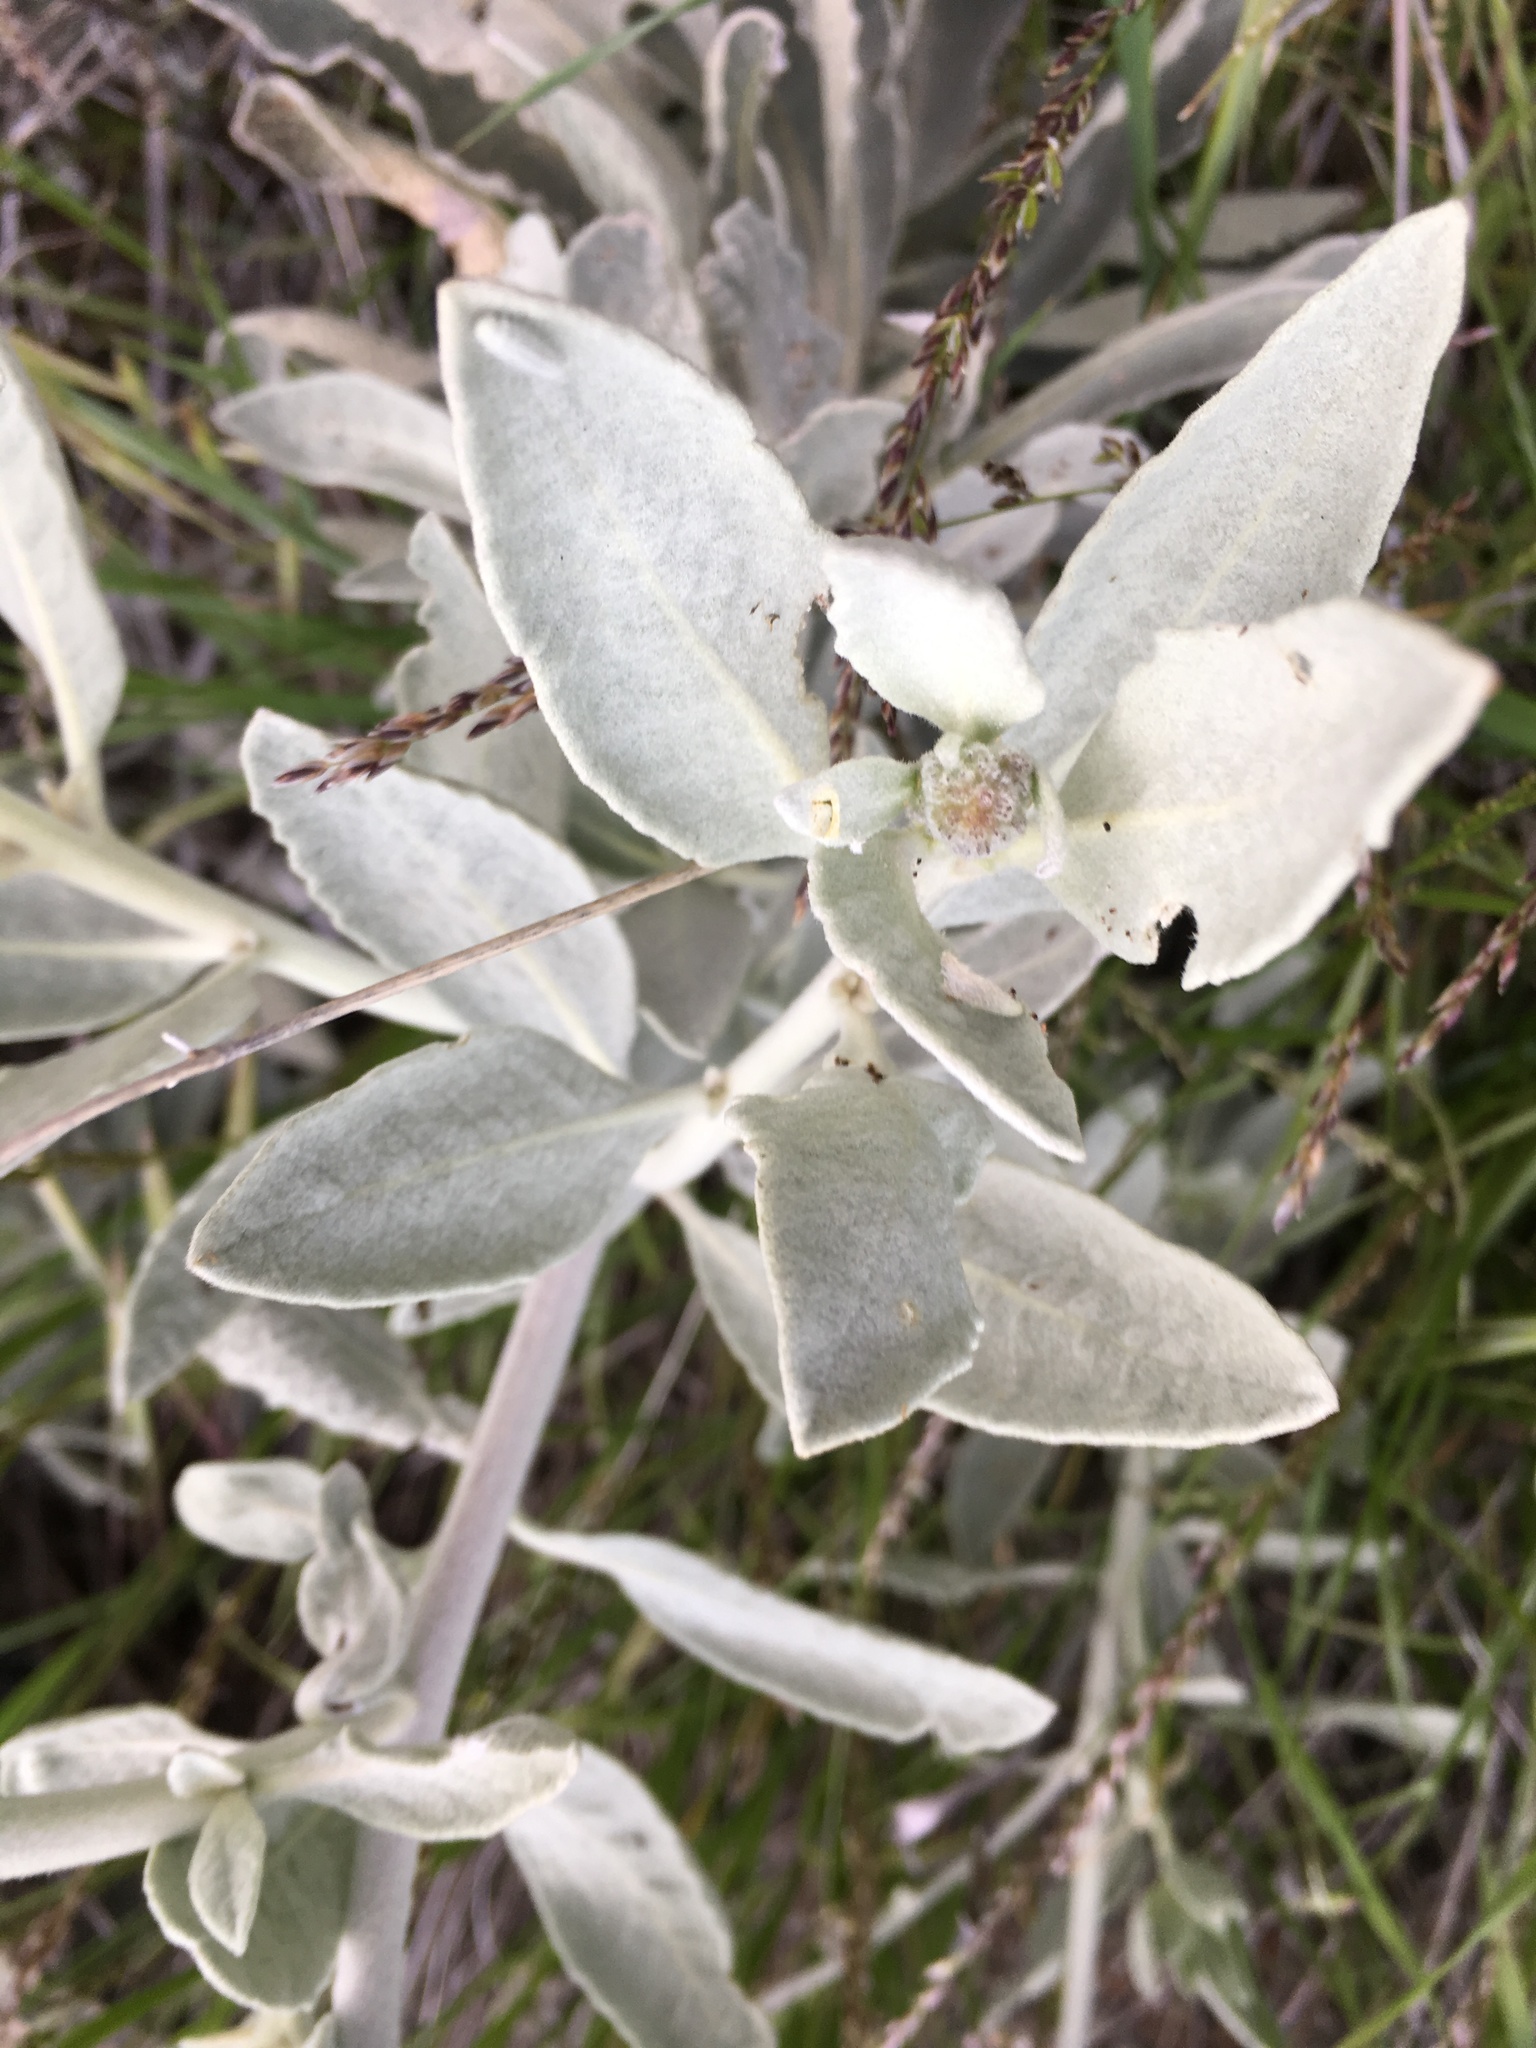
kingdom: Plantae
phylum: Tracheophyta
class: Magnoliopsida
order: Boraginales
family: Namaceae
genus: Eriodictyon
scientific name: Eriodictyon tomentosum
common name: Woolly yerba-santa
